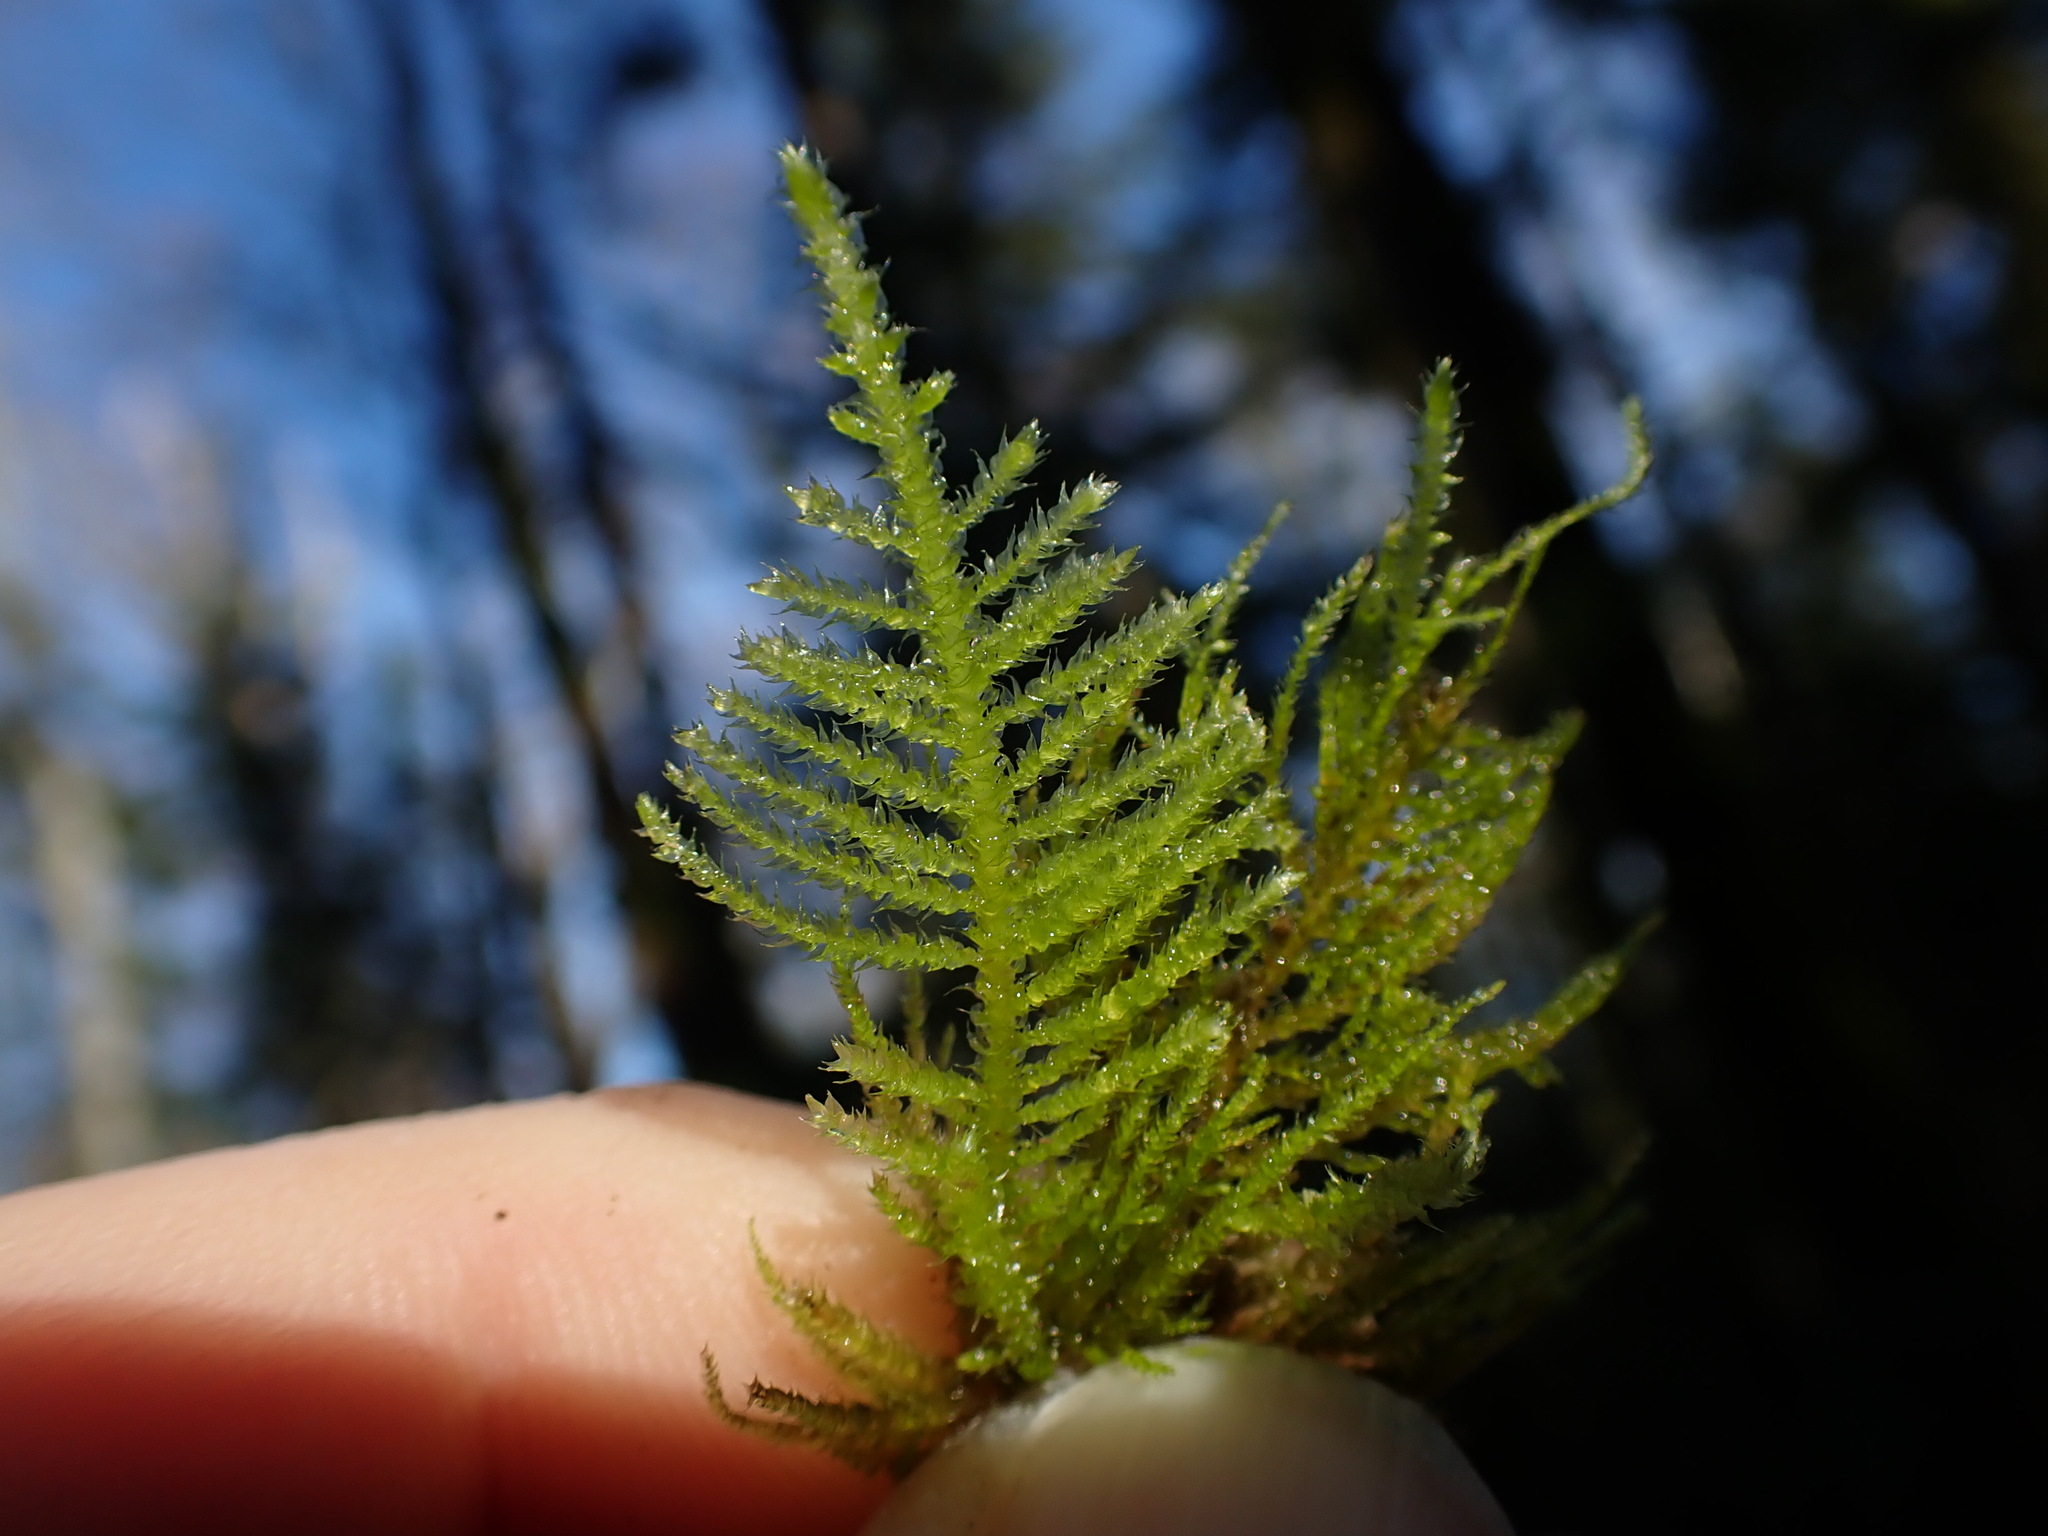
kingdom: Plantae
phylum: Bryophyta
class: Bryopsida
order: Hypnales
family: Brachytheciaceae
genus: Kindbergia
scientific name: Kindbergia oregana
